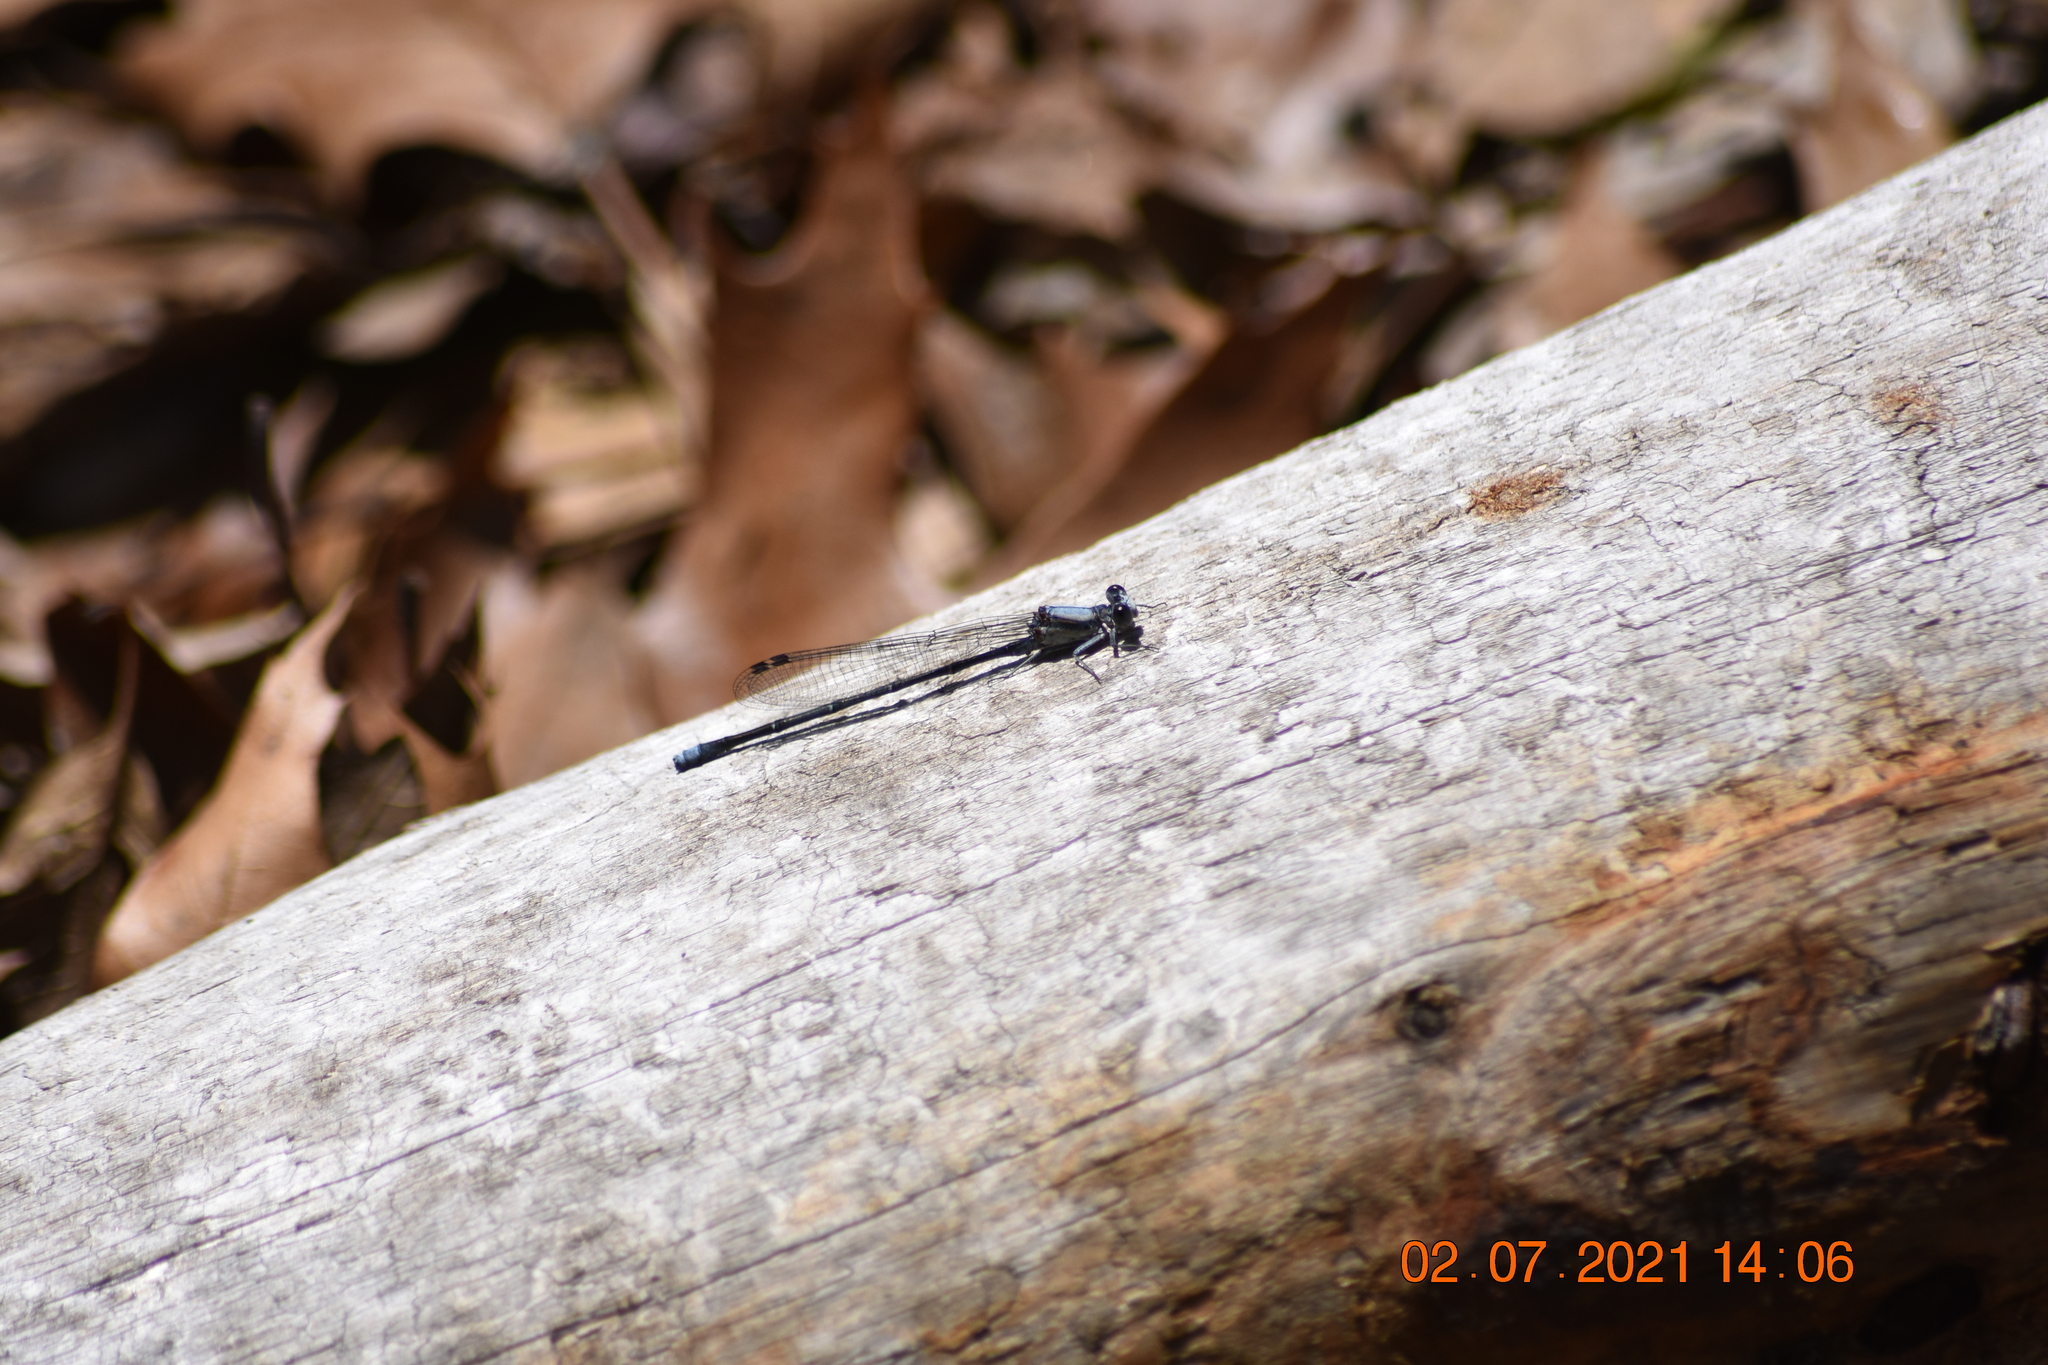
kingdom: Animalia
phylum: Arthropoda
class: Insecta
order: Odonata
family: Coenagrionidae
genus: Argia
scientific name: Argia moesta
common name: Powdered dancer
